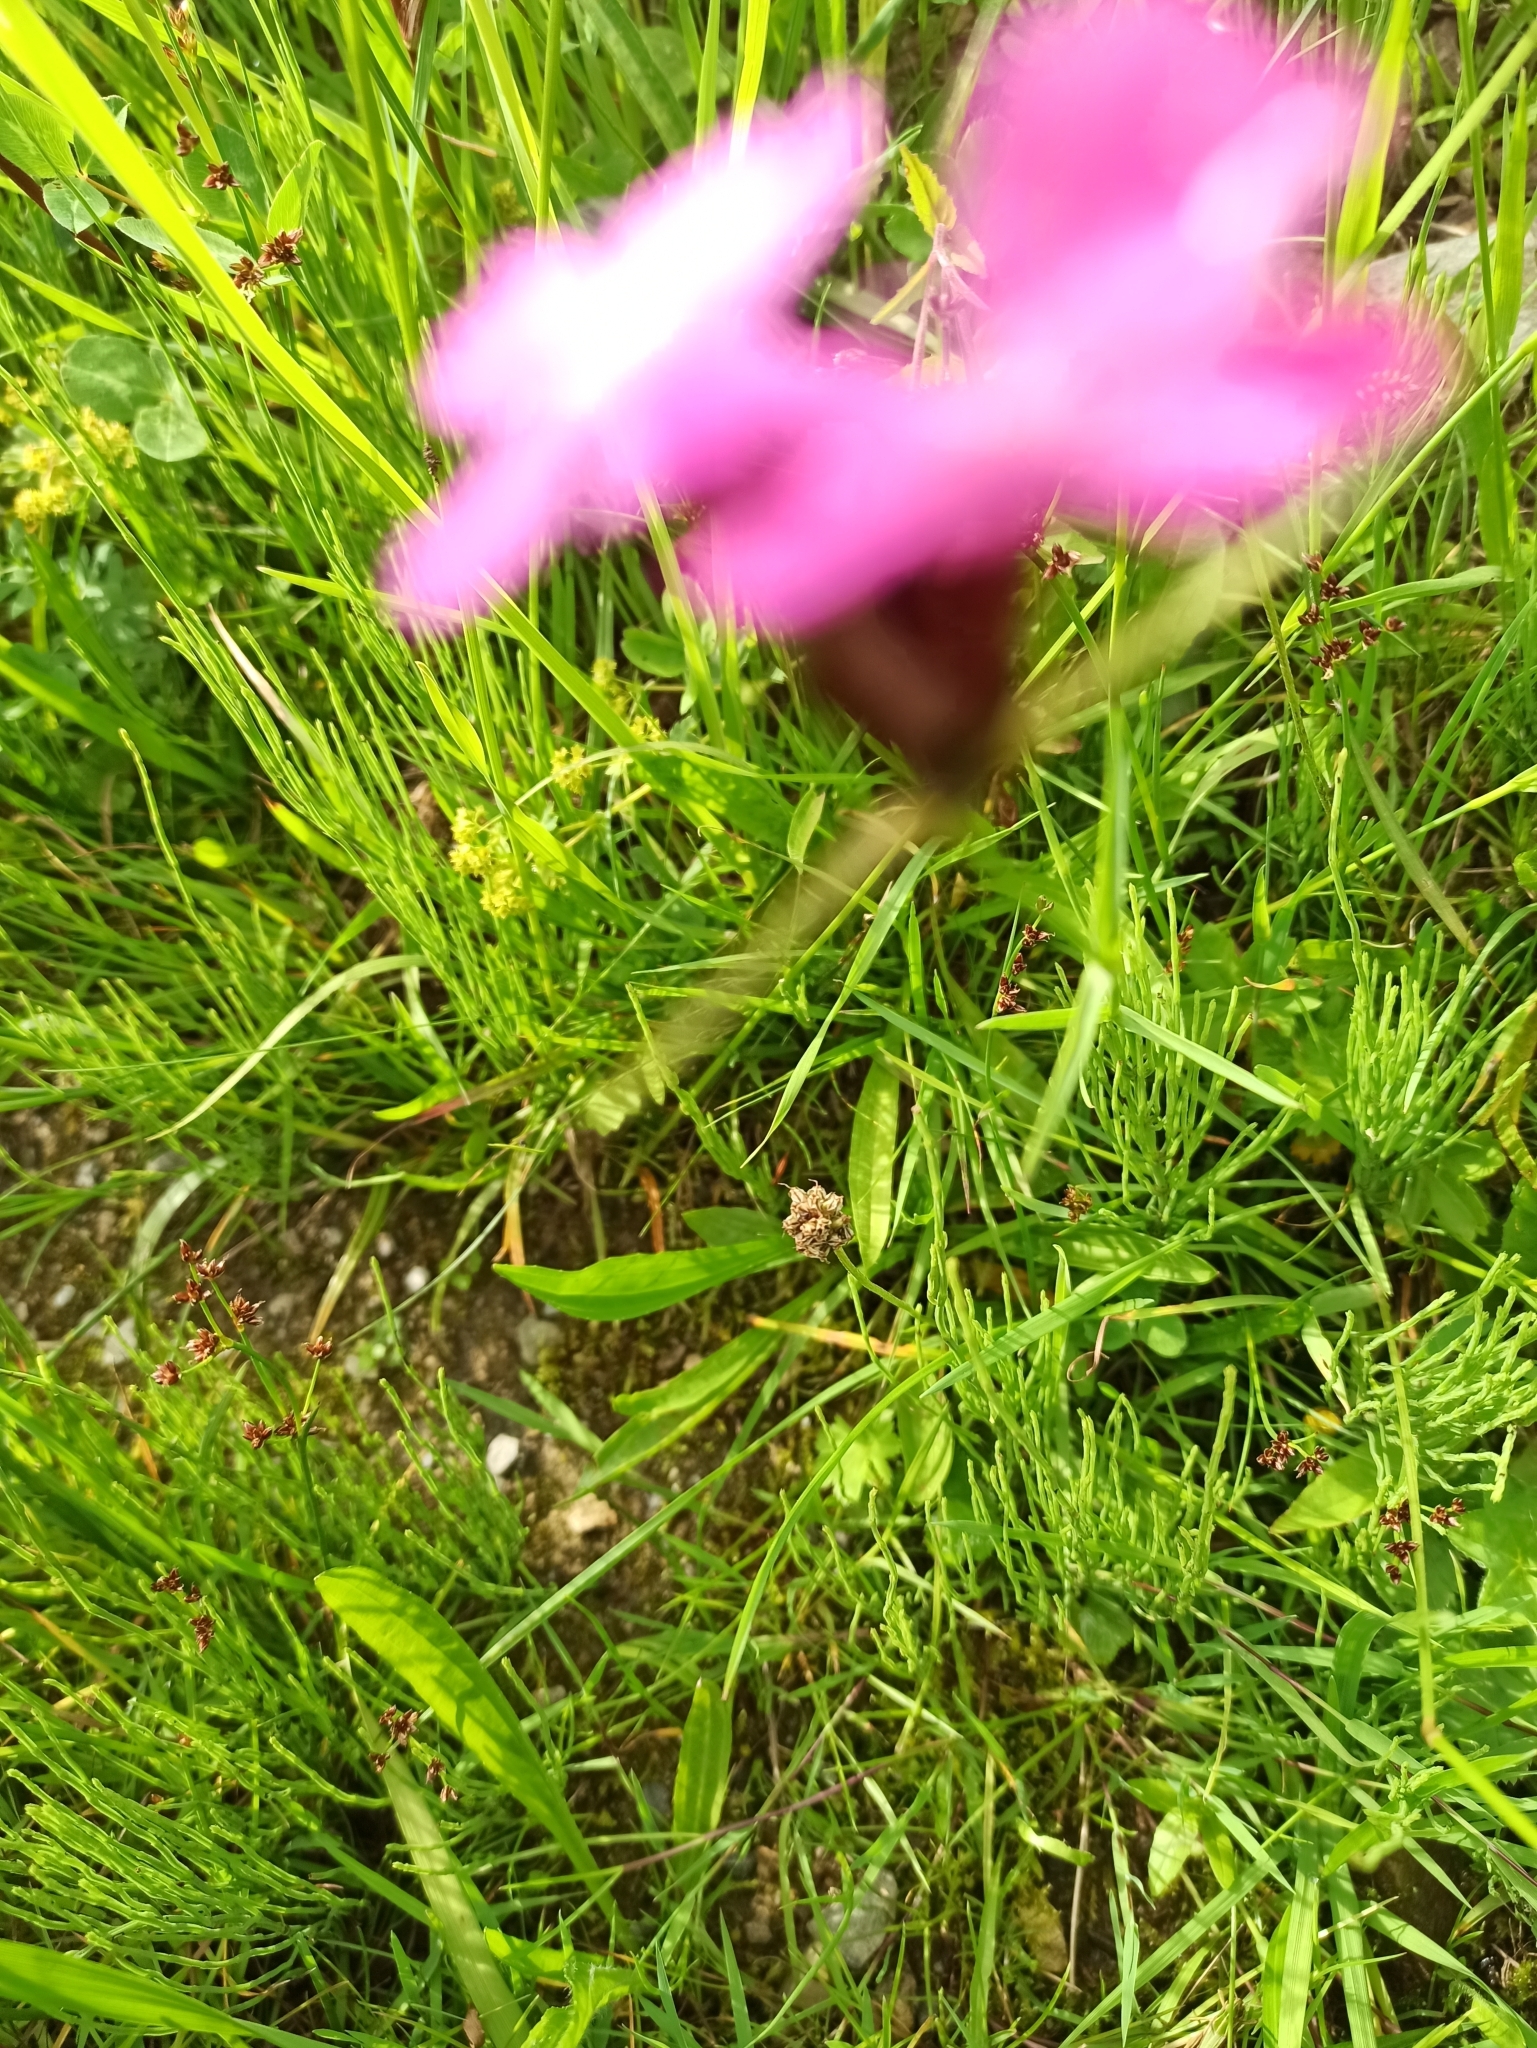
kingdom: Plantae
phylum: Tracheophyta
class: Magnoliopsida
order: Caryophyllales
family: Caryophyllaceae
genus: Dianthus
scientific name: Dianthus carthusianorum
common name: Carthusian pink
